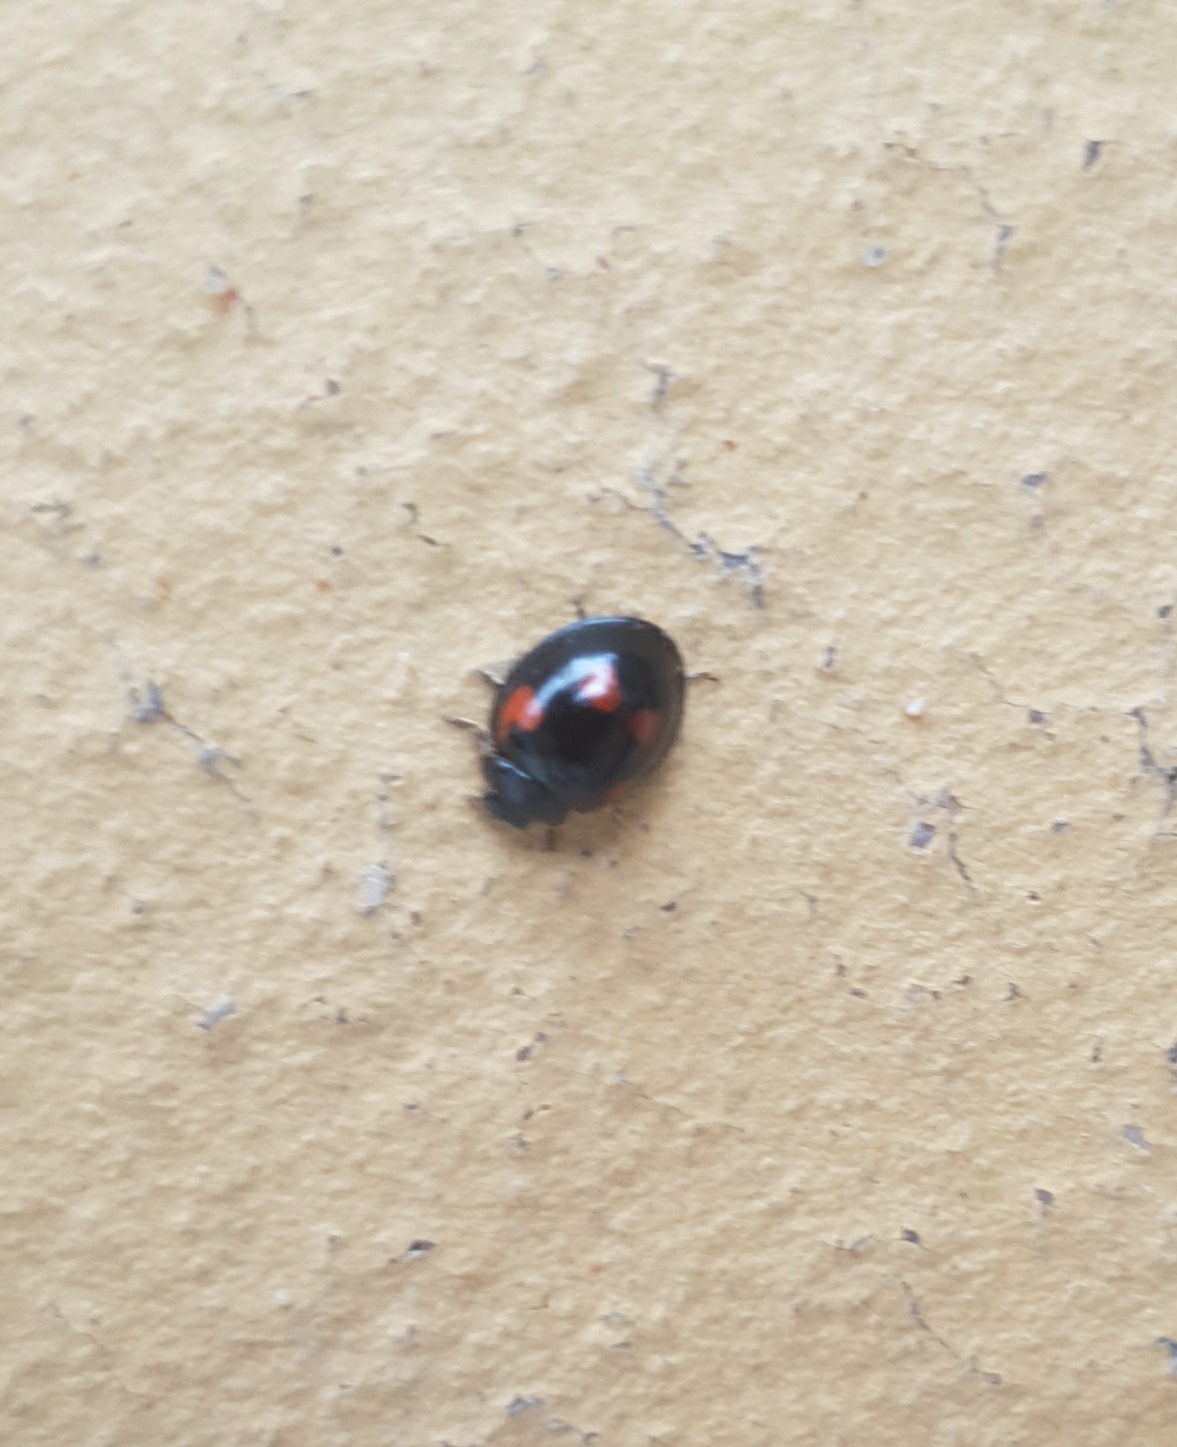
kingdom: Animalia
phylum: Arthropoda
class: Insecta
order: Coleoptera
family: Coccinellidae
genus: Brumus
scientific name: Brumus quadripustulatus
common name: Ladybird beetle
